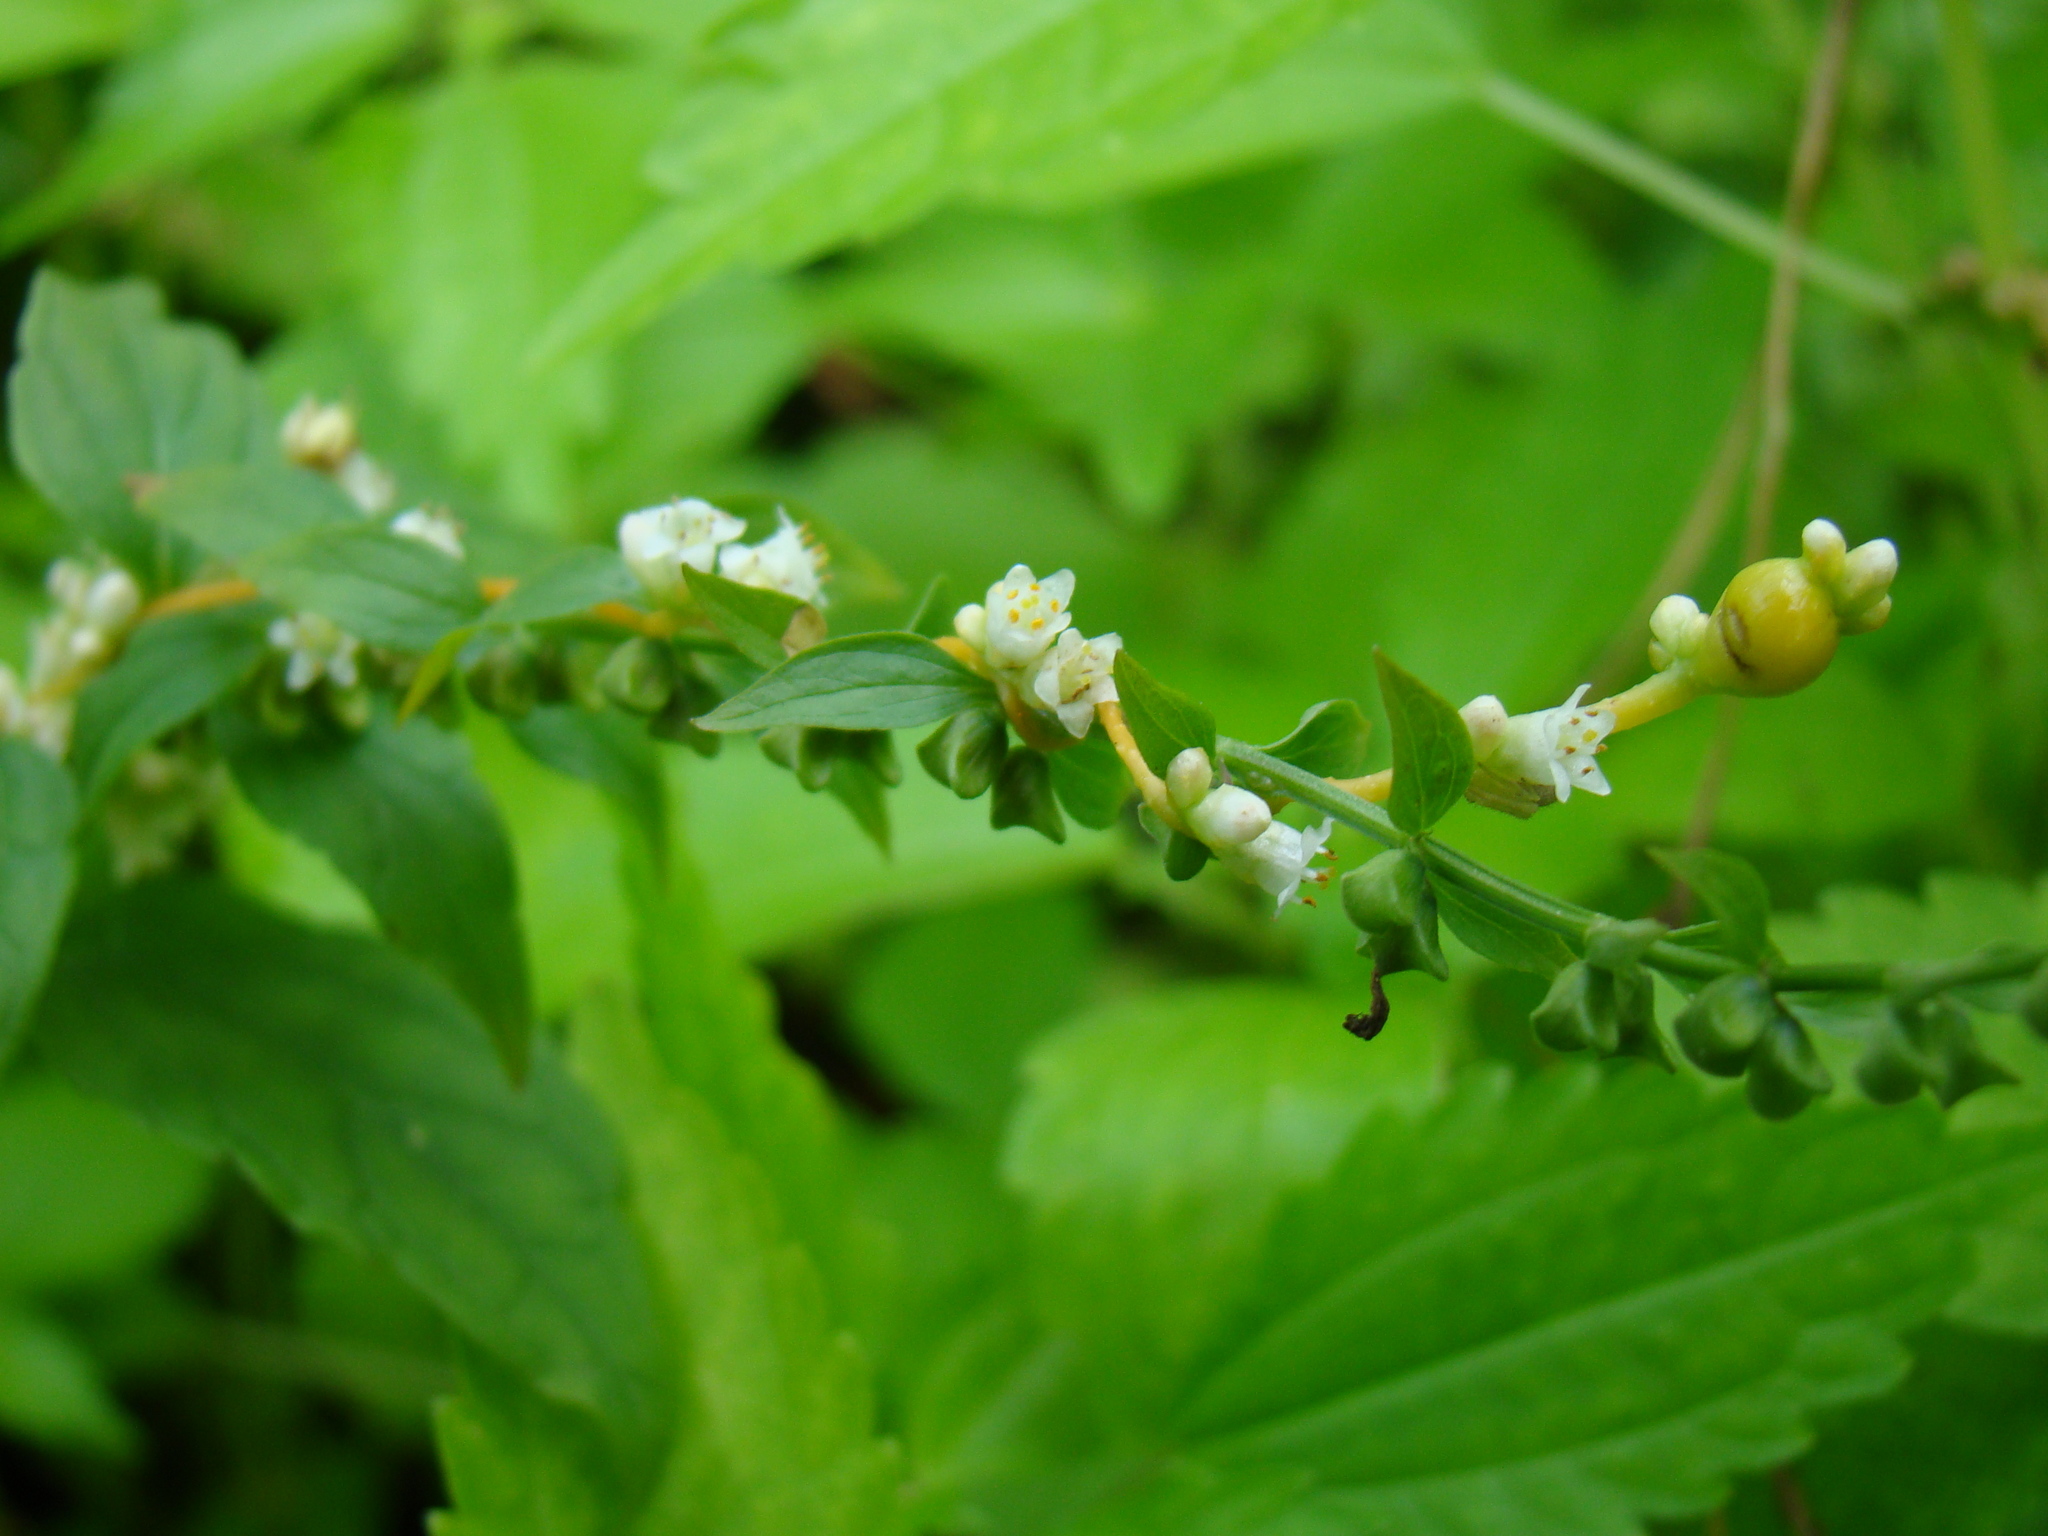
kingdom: Plantae
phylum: Tracheophyta
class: Magnoliopsida
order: Solanales
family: Convolvulaceae
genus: Cuscuta
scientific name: Cuscuta gronovii
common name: Common dodder
